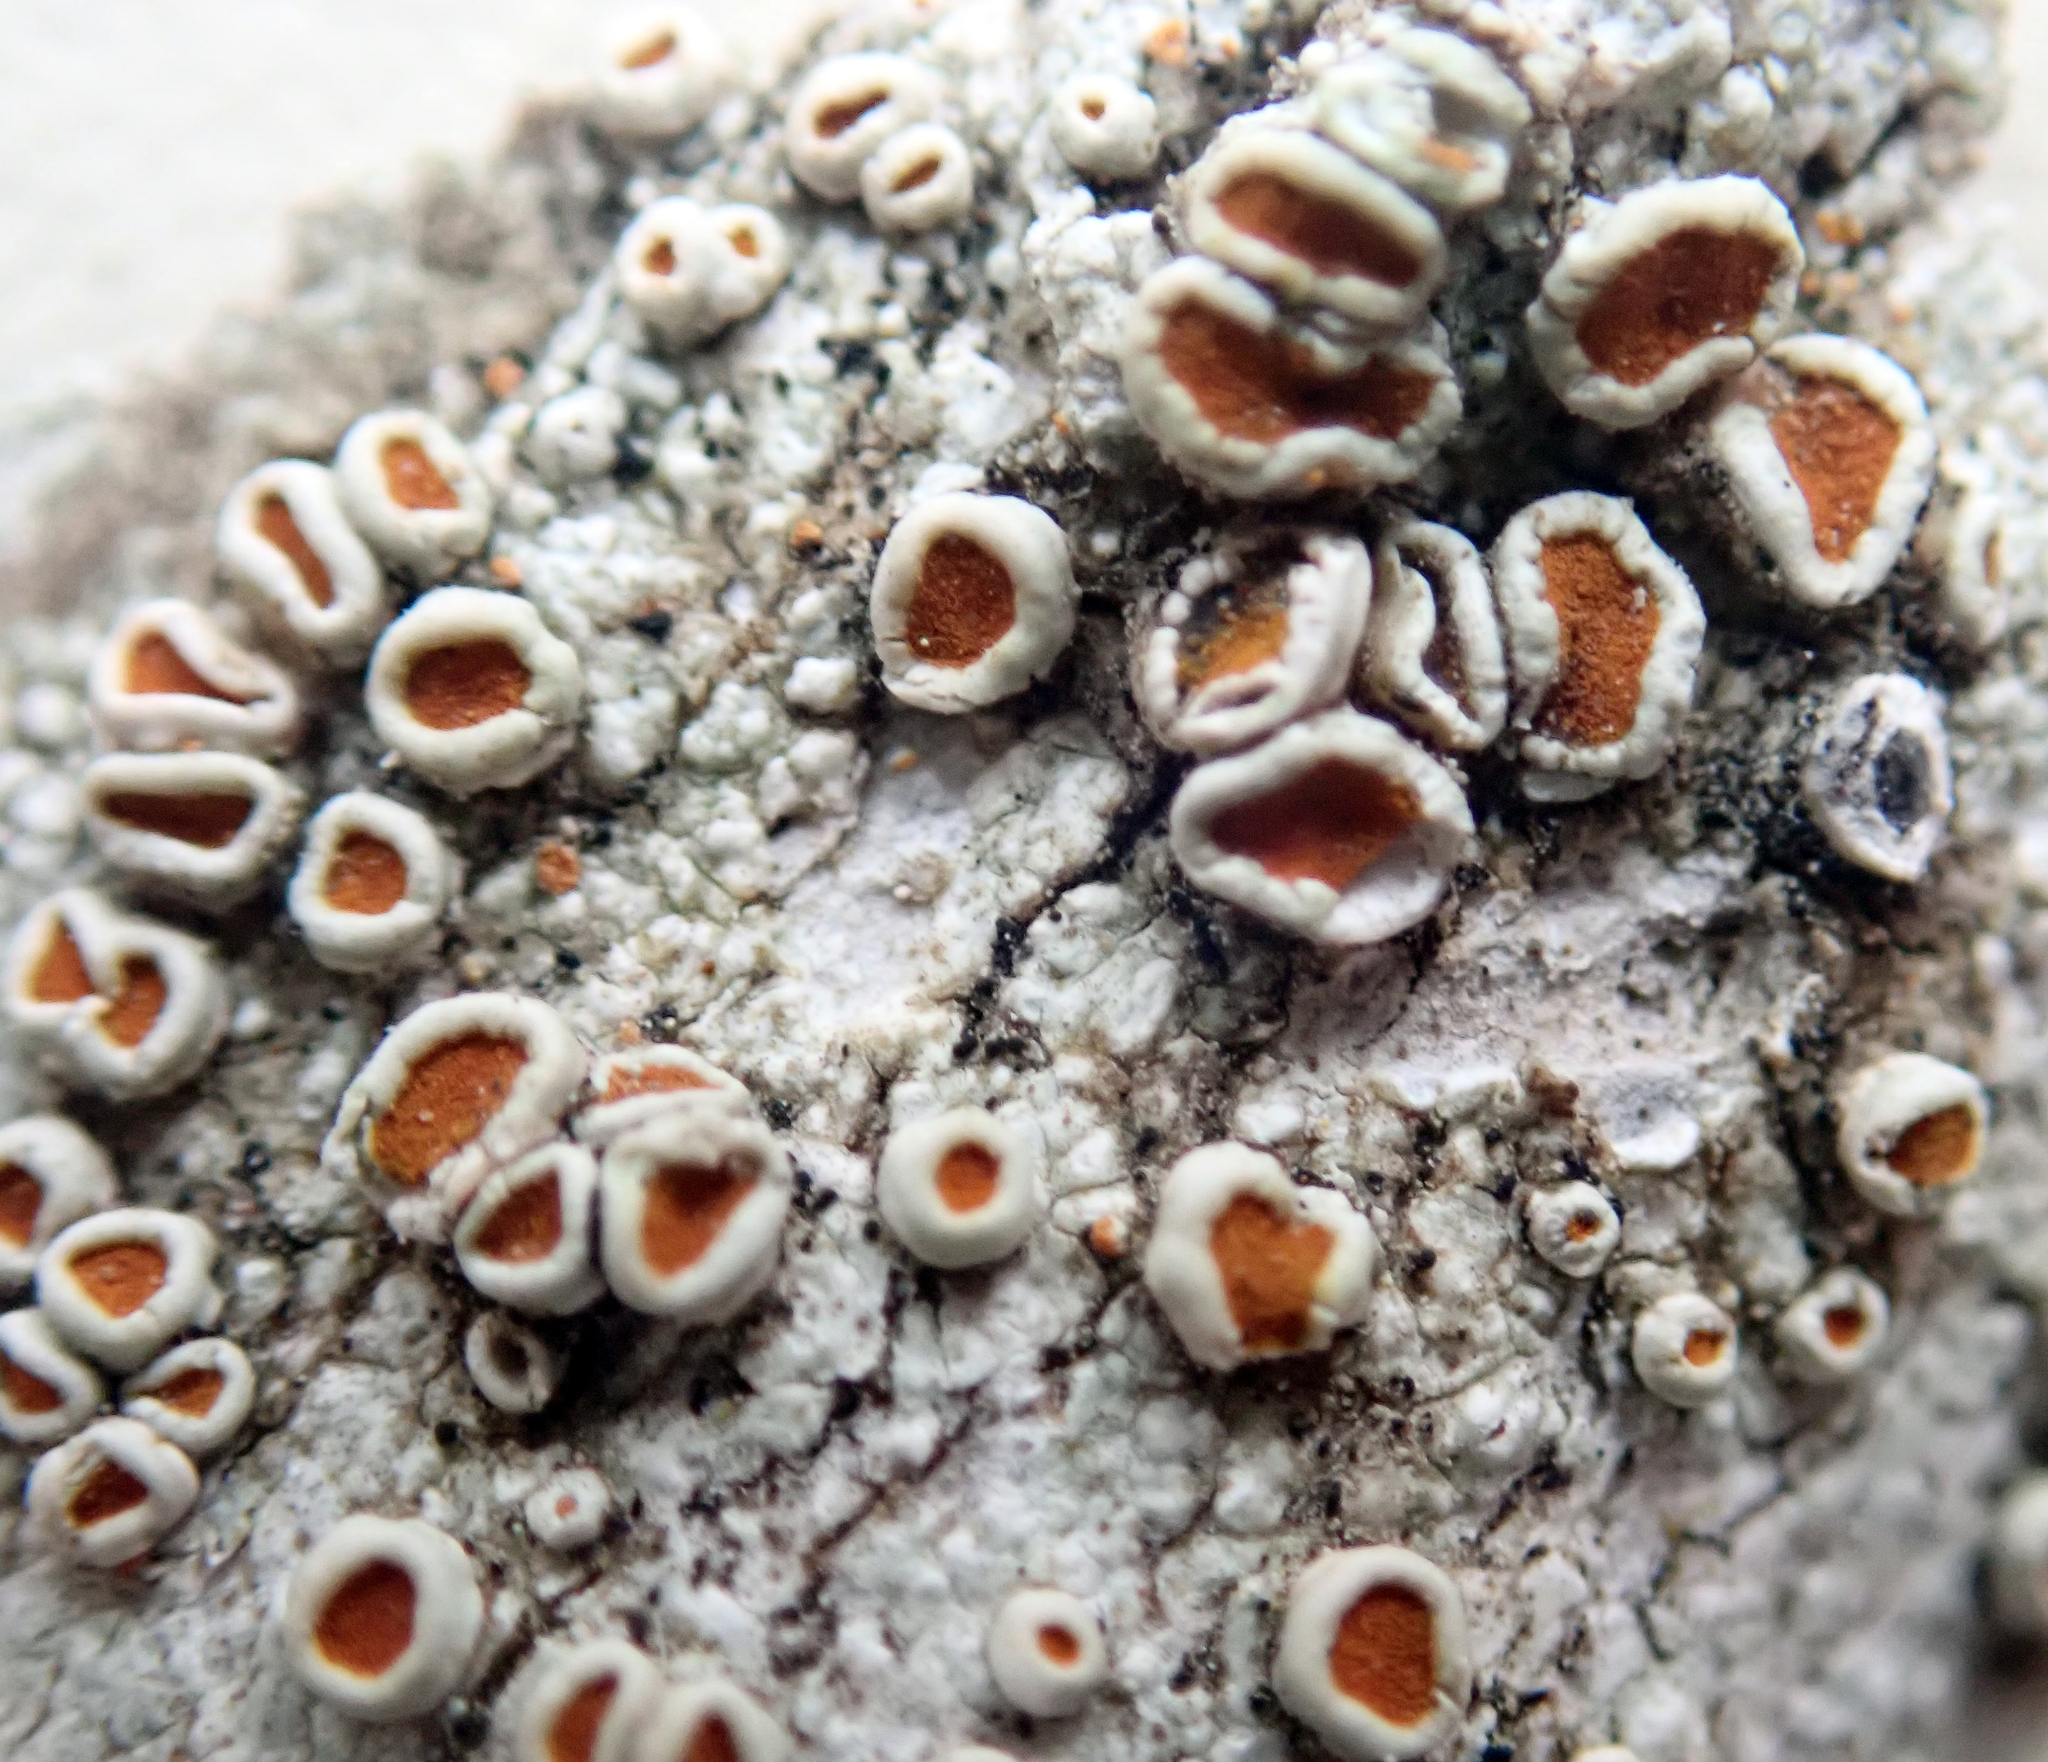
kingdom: Fungi
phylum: Ascomycota
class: Lecanoromycetes
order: Teloschistales
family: Brigantiaeaceae
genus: Brigantiaea
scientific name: Brigantiaea chrysosticta
